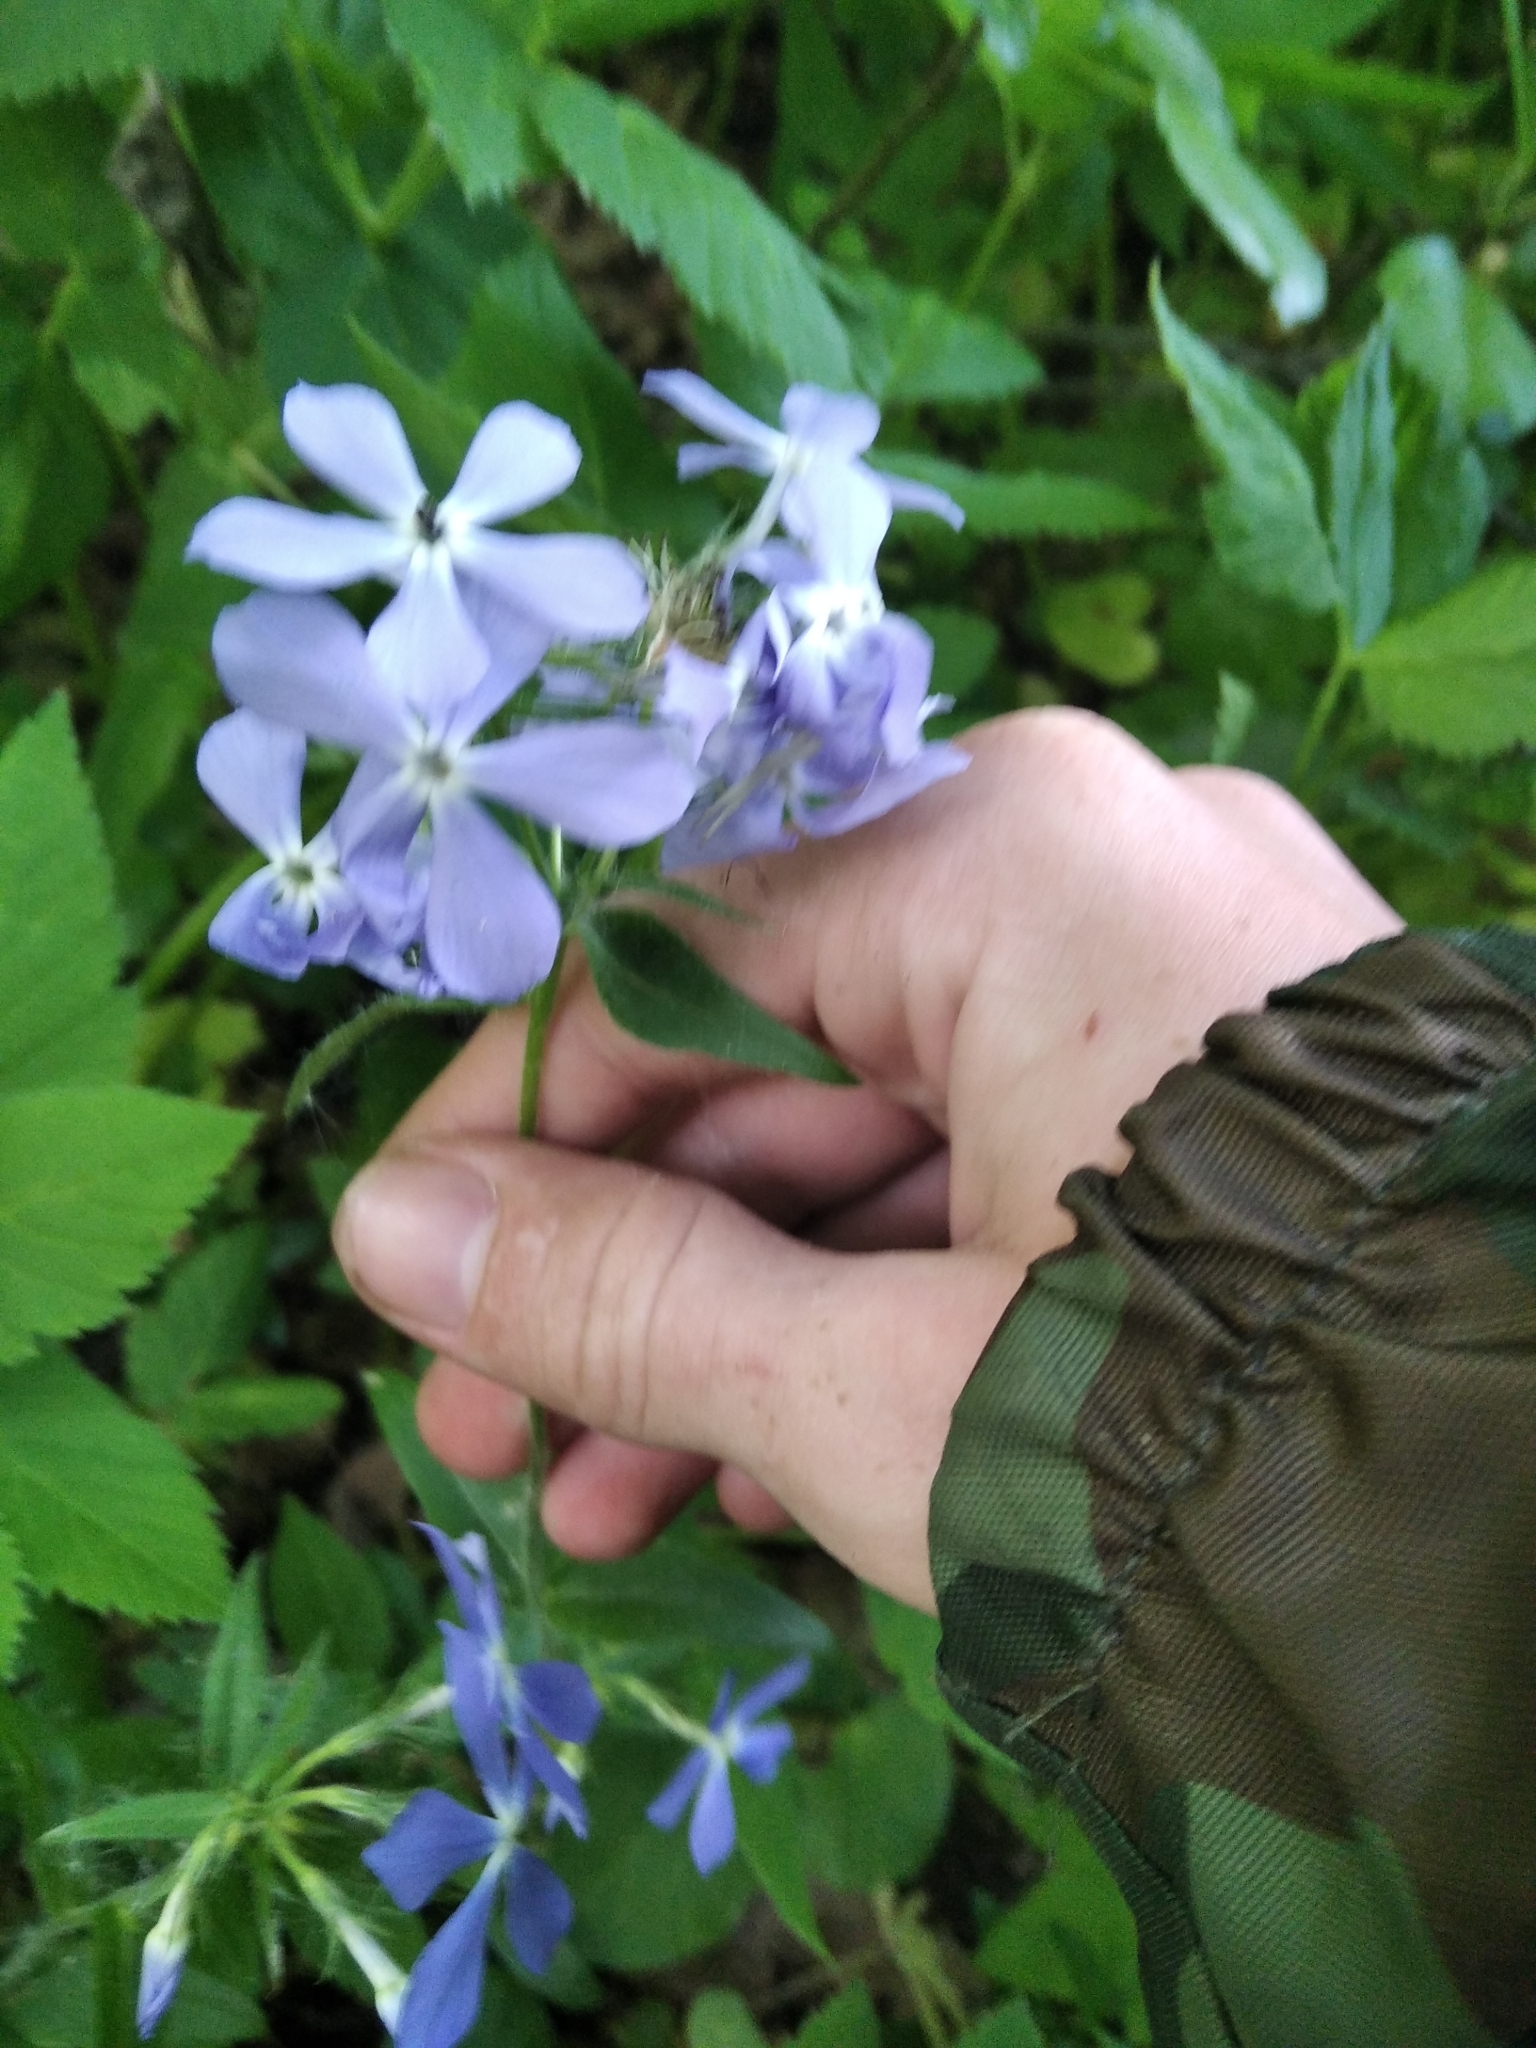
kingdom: Plantae
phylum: Tracheophyta
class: Magnoliopsida
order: Ericales
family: Polemoniaceae
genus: Phlox
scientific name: Phlox divaricata
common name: Blue phlox
